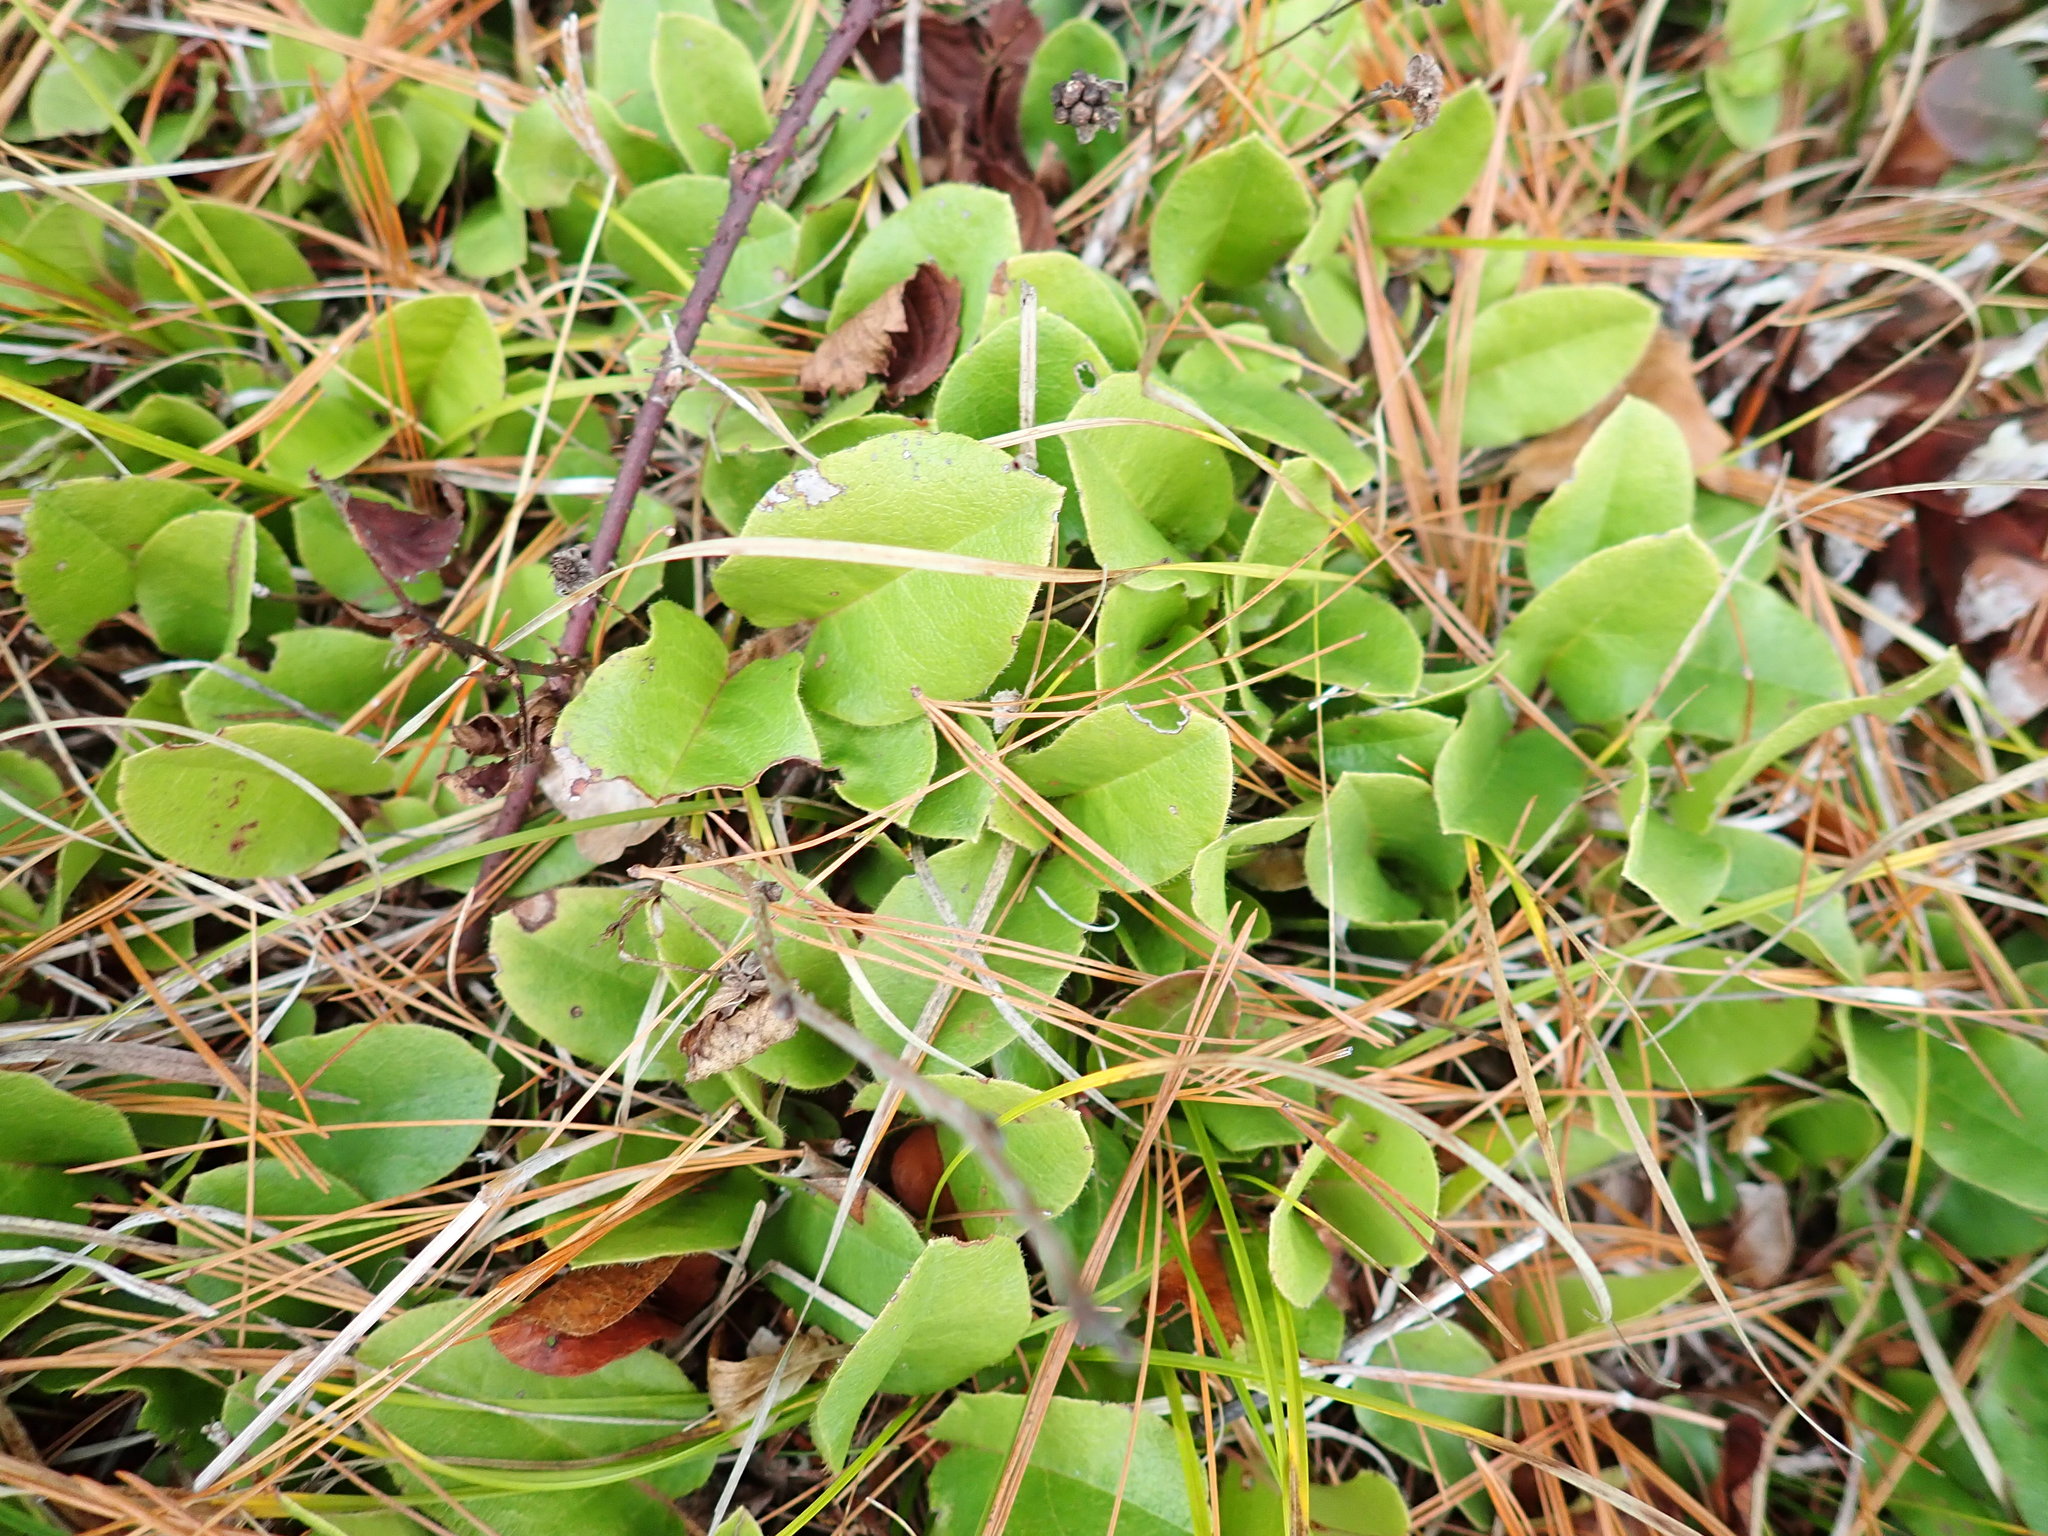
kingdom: Plantae
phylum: Tracheophyta
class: Magnoliopsida
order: Ericales
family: Ericaceae
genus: Epigaea
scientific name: Epigaea repens
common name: Gravelroot
